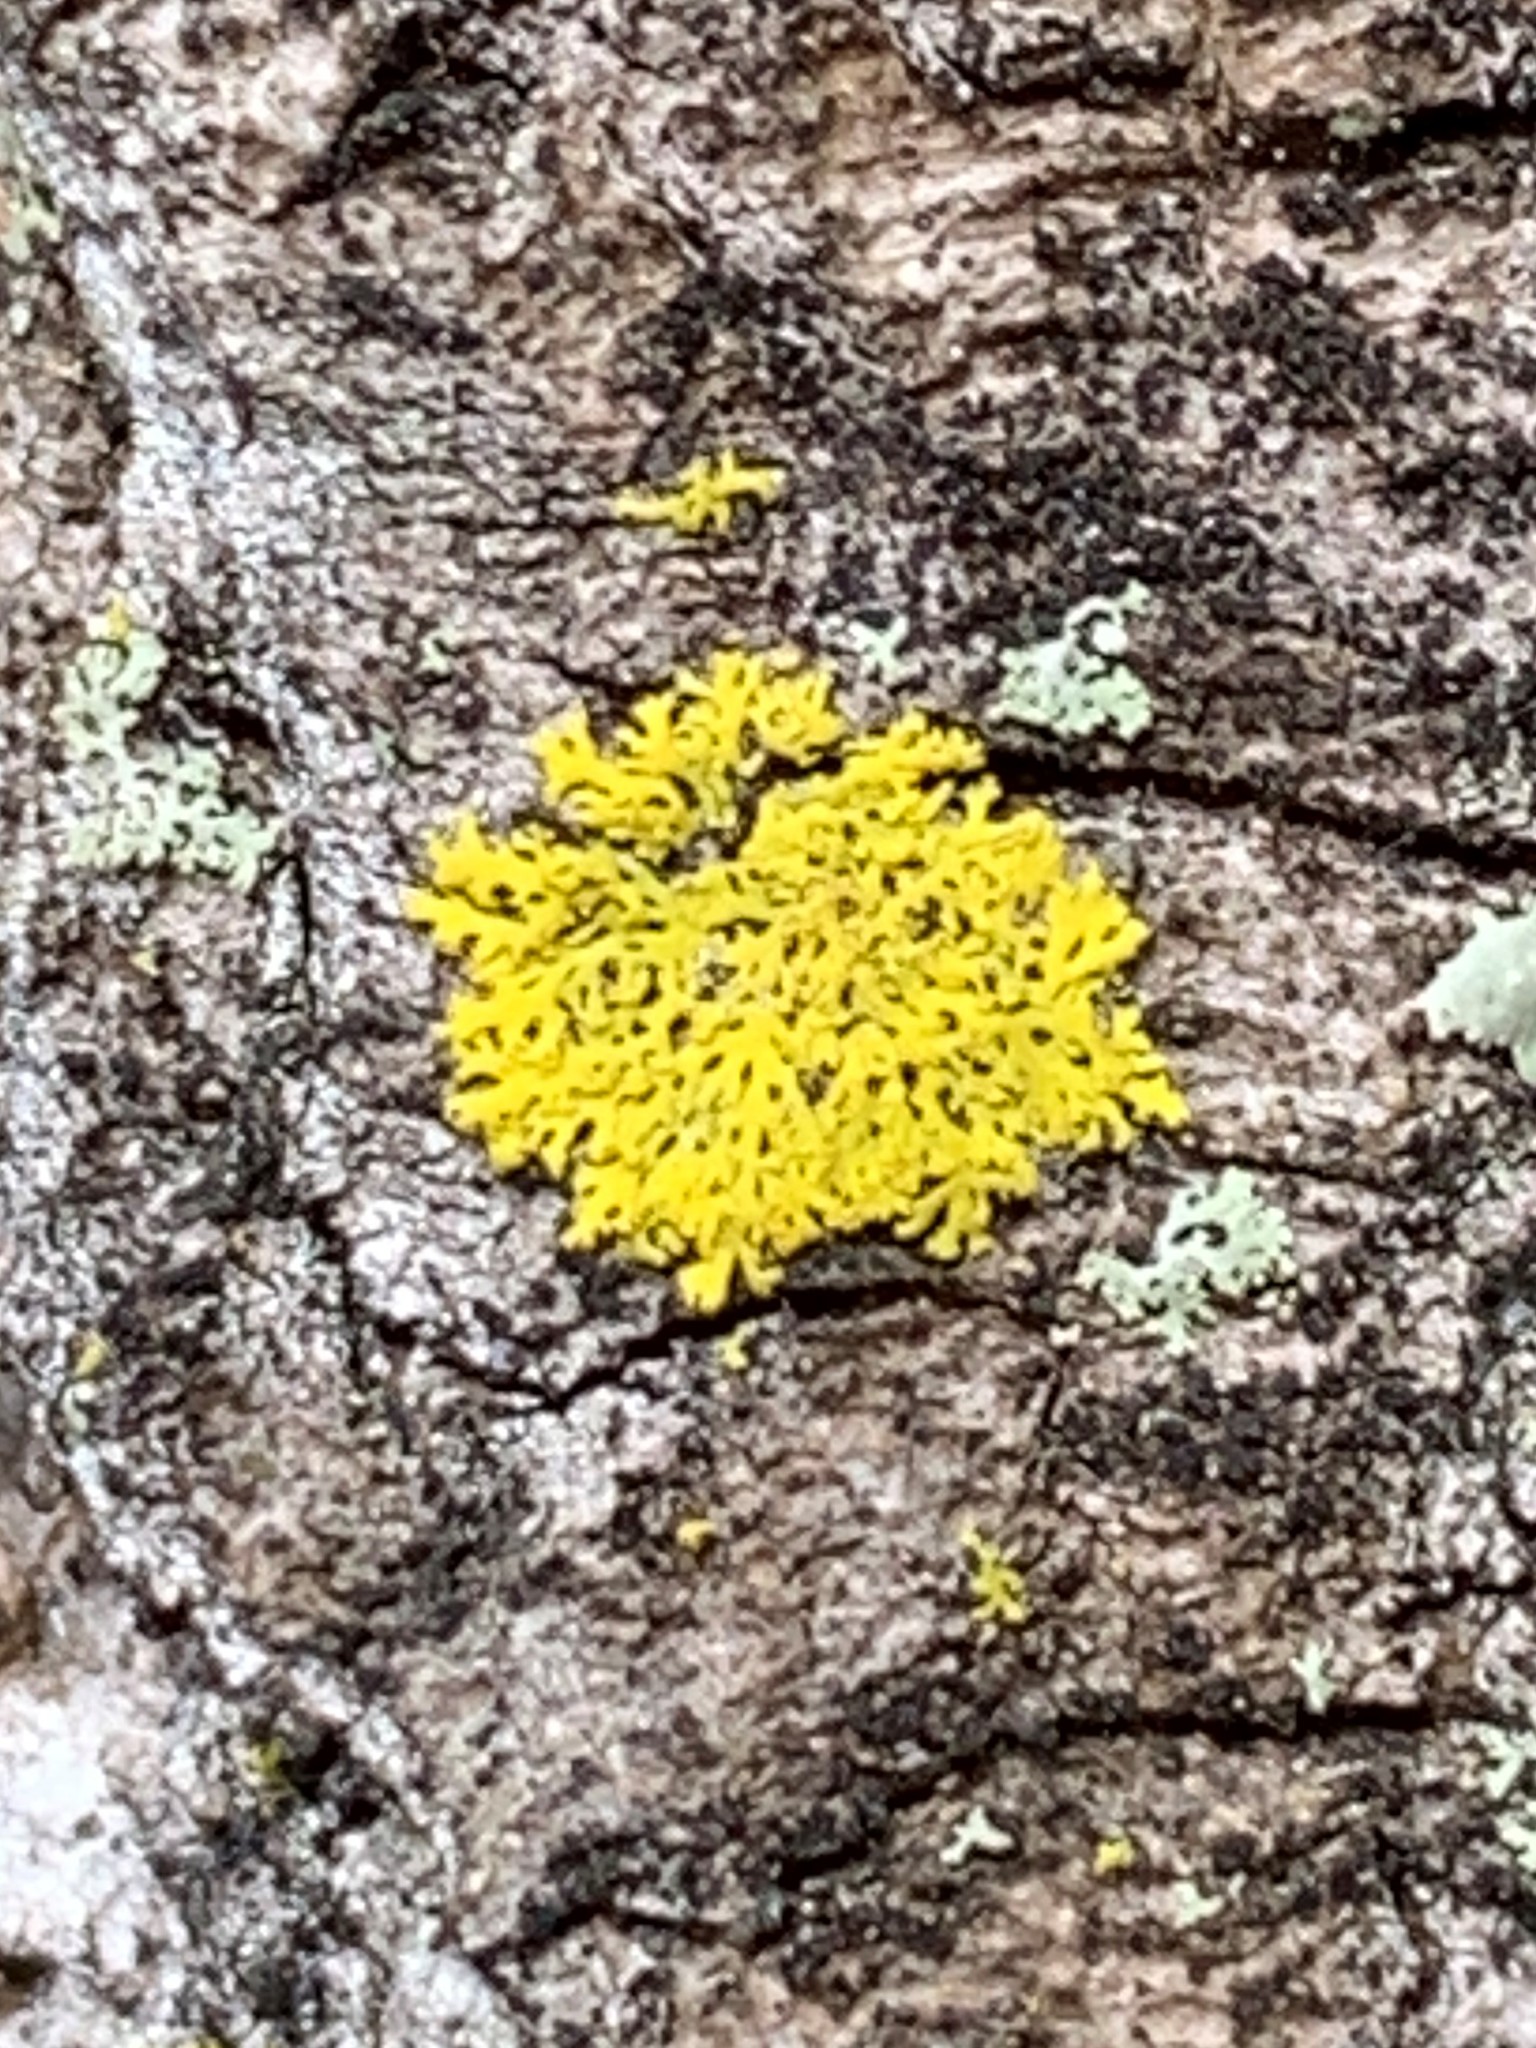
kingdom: Fungi
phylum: Ascomycota
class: Candelariomycetes
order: Candelariales
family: Candelariaceae
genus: Candelaria
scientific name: Candelaria concolor
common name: Candleflame lichen
